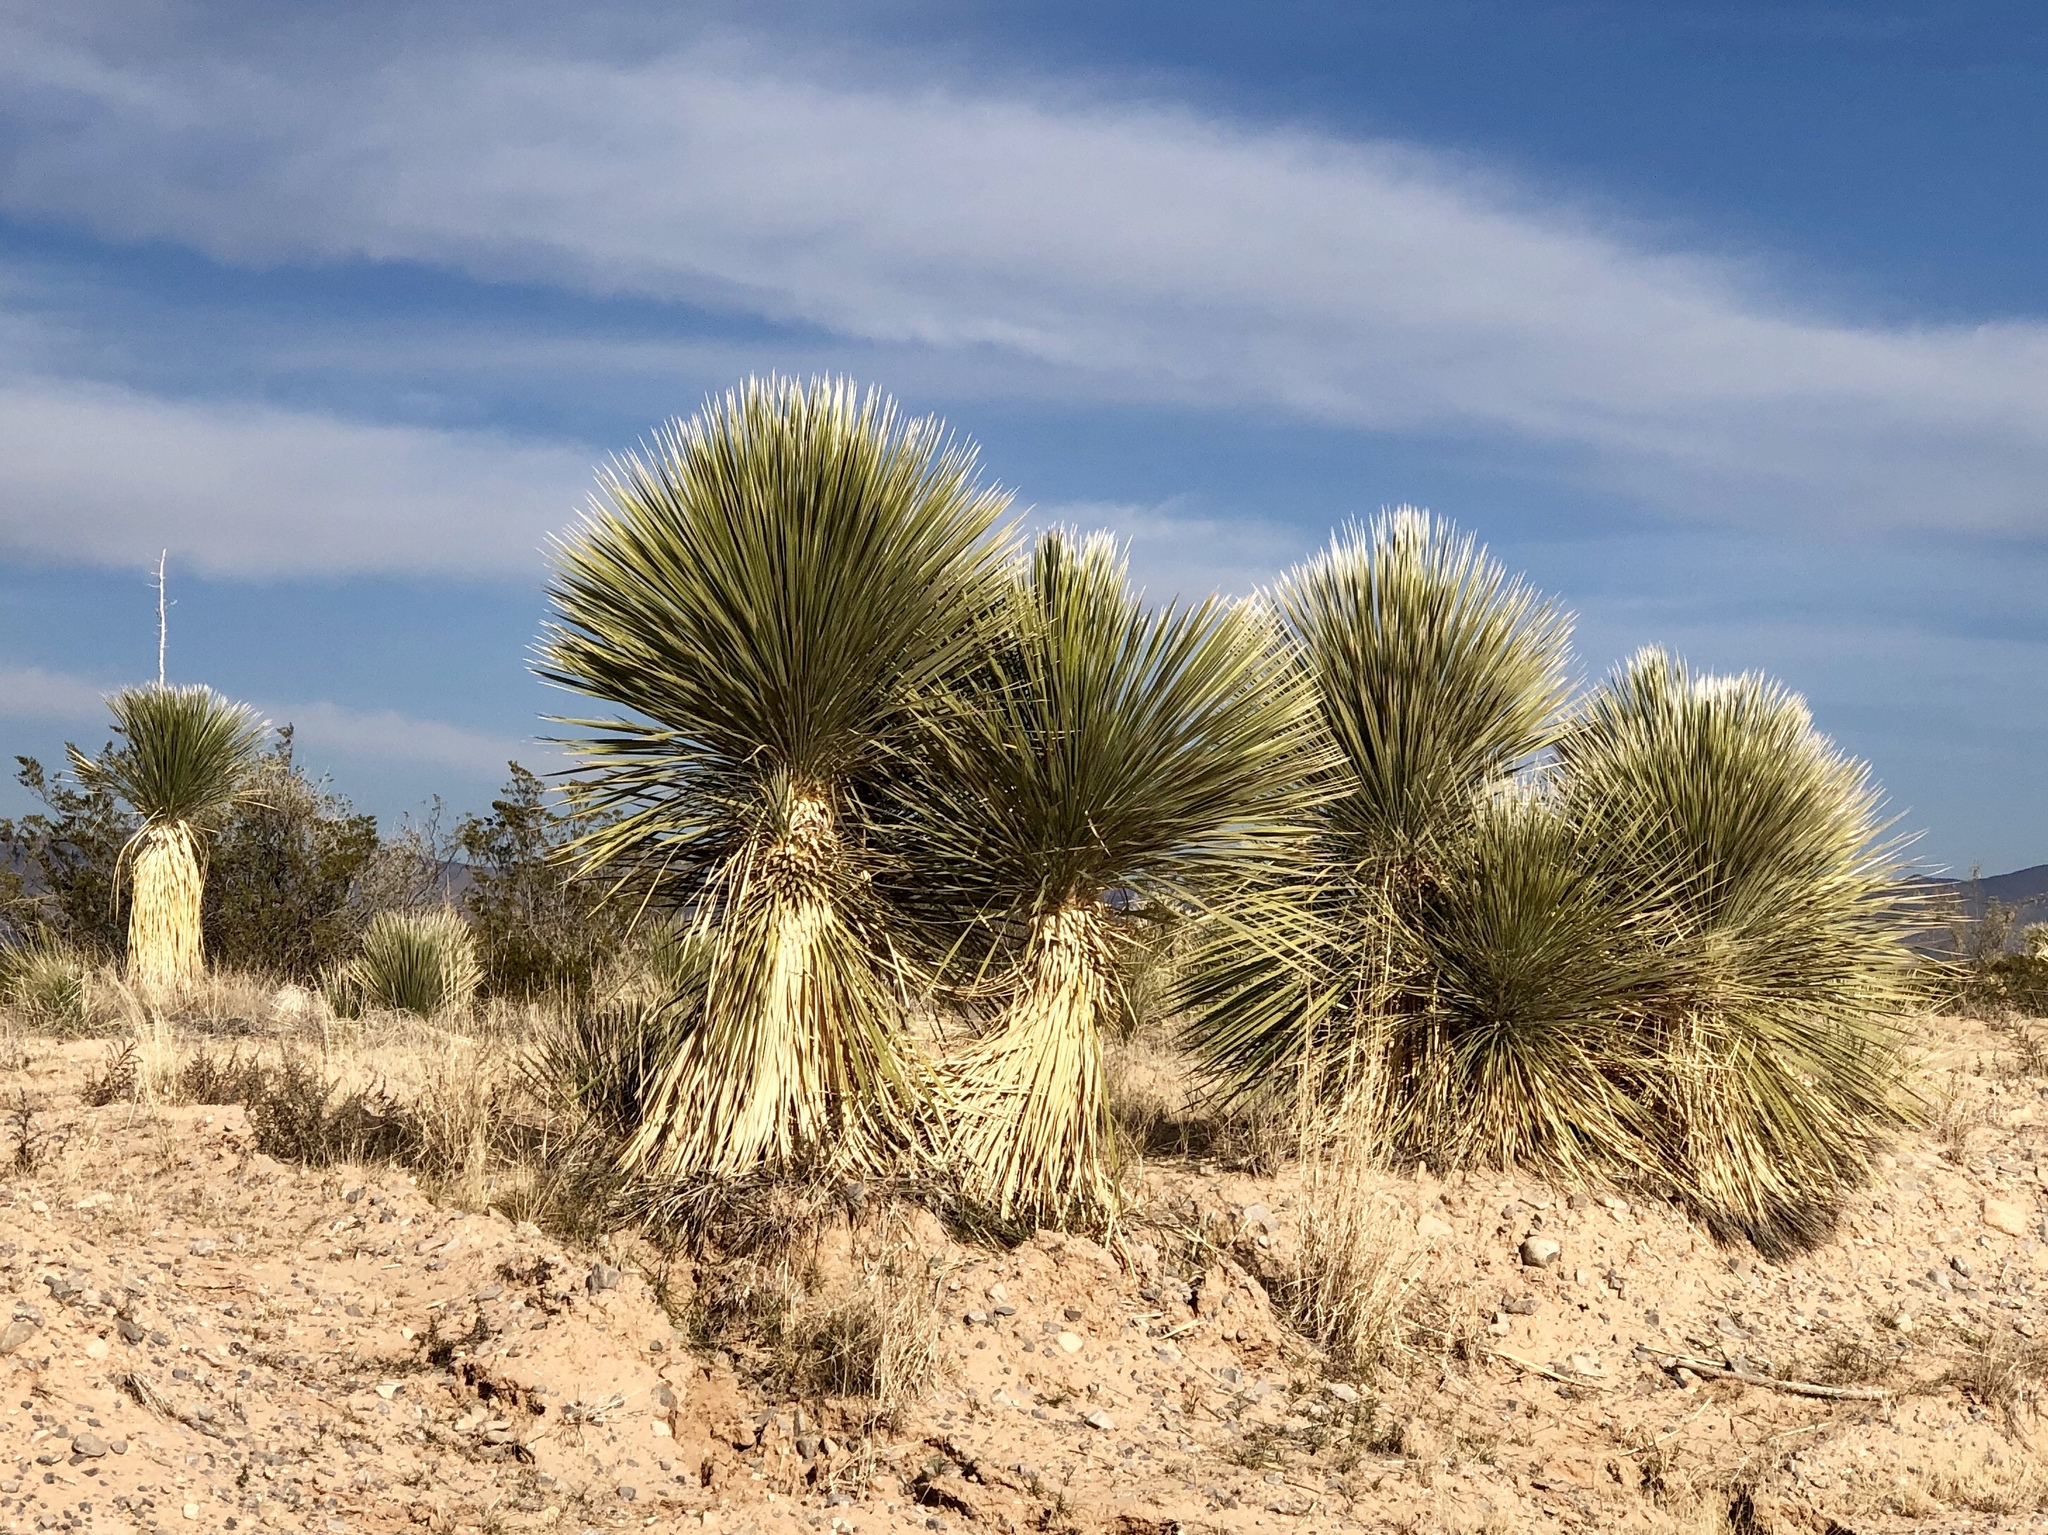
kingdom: Plantae
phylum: Tracheophyta
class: Liliopsida
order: Asparagales
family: Asparagaceae
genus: Yucca
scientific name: Yucca elata
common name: Palmella
